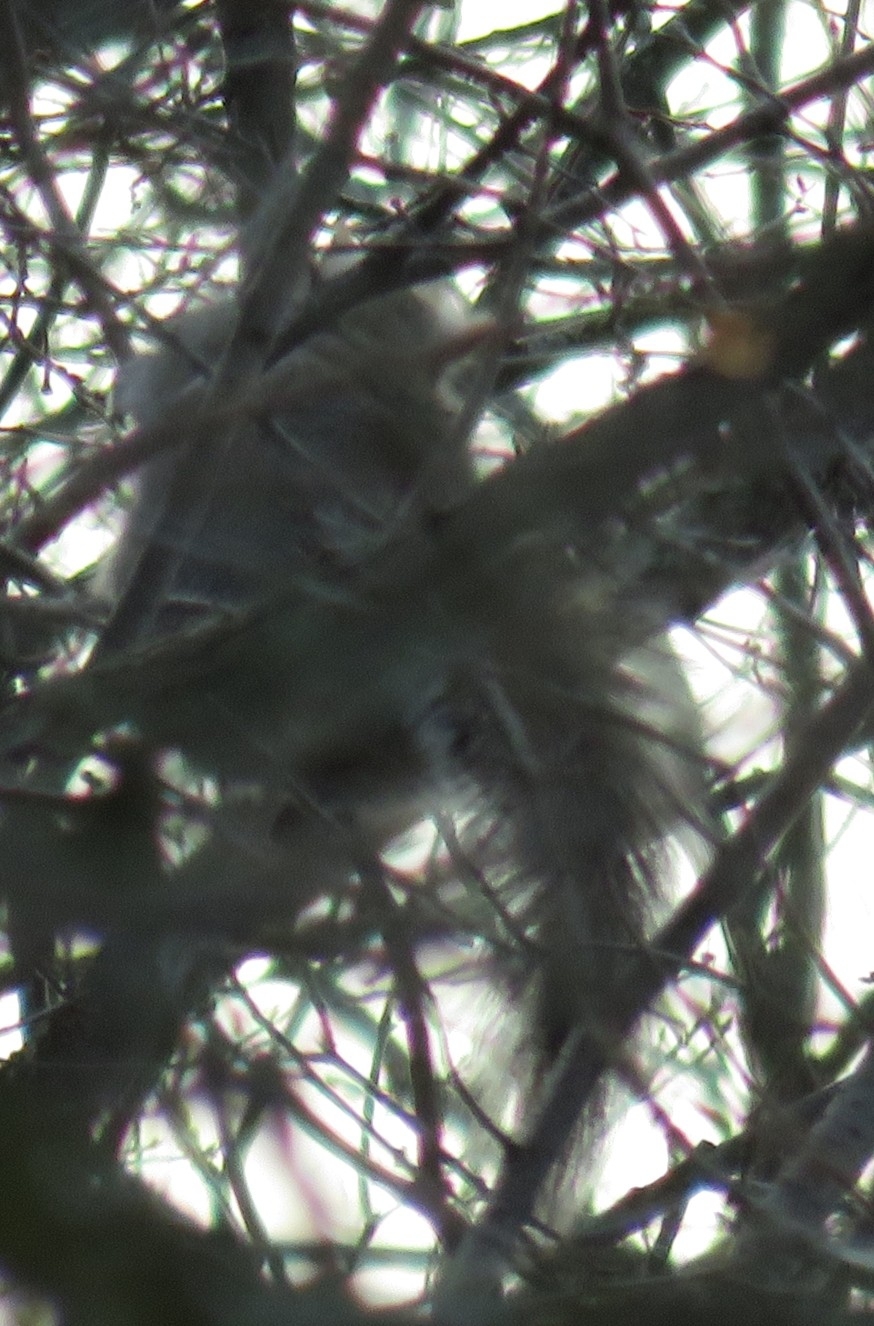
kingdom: Animalia
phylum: Chordata
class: Mammalia
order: Rodentia
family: Sciuridae
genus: Sciurus
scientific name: Sciurus carolinensis
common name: Eastern gray squirrel
